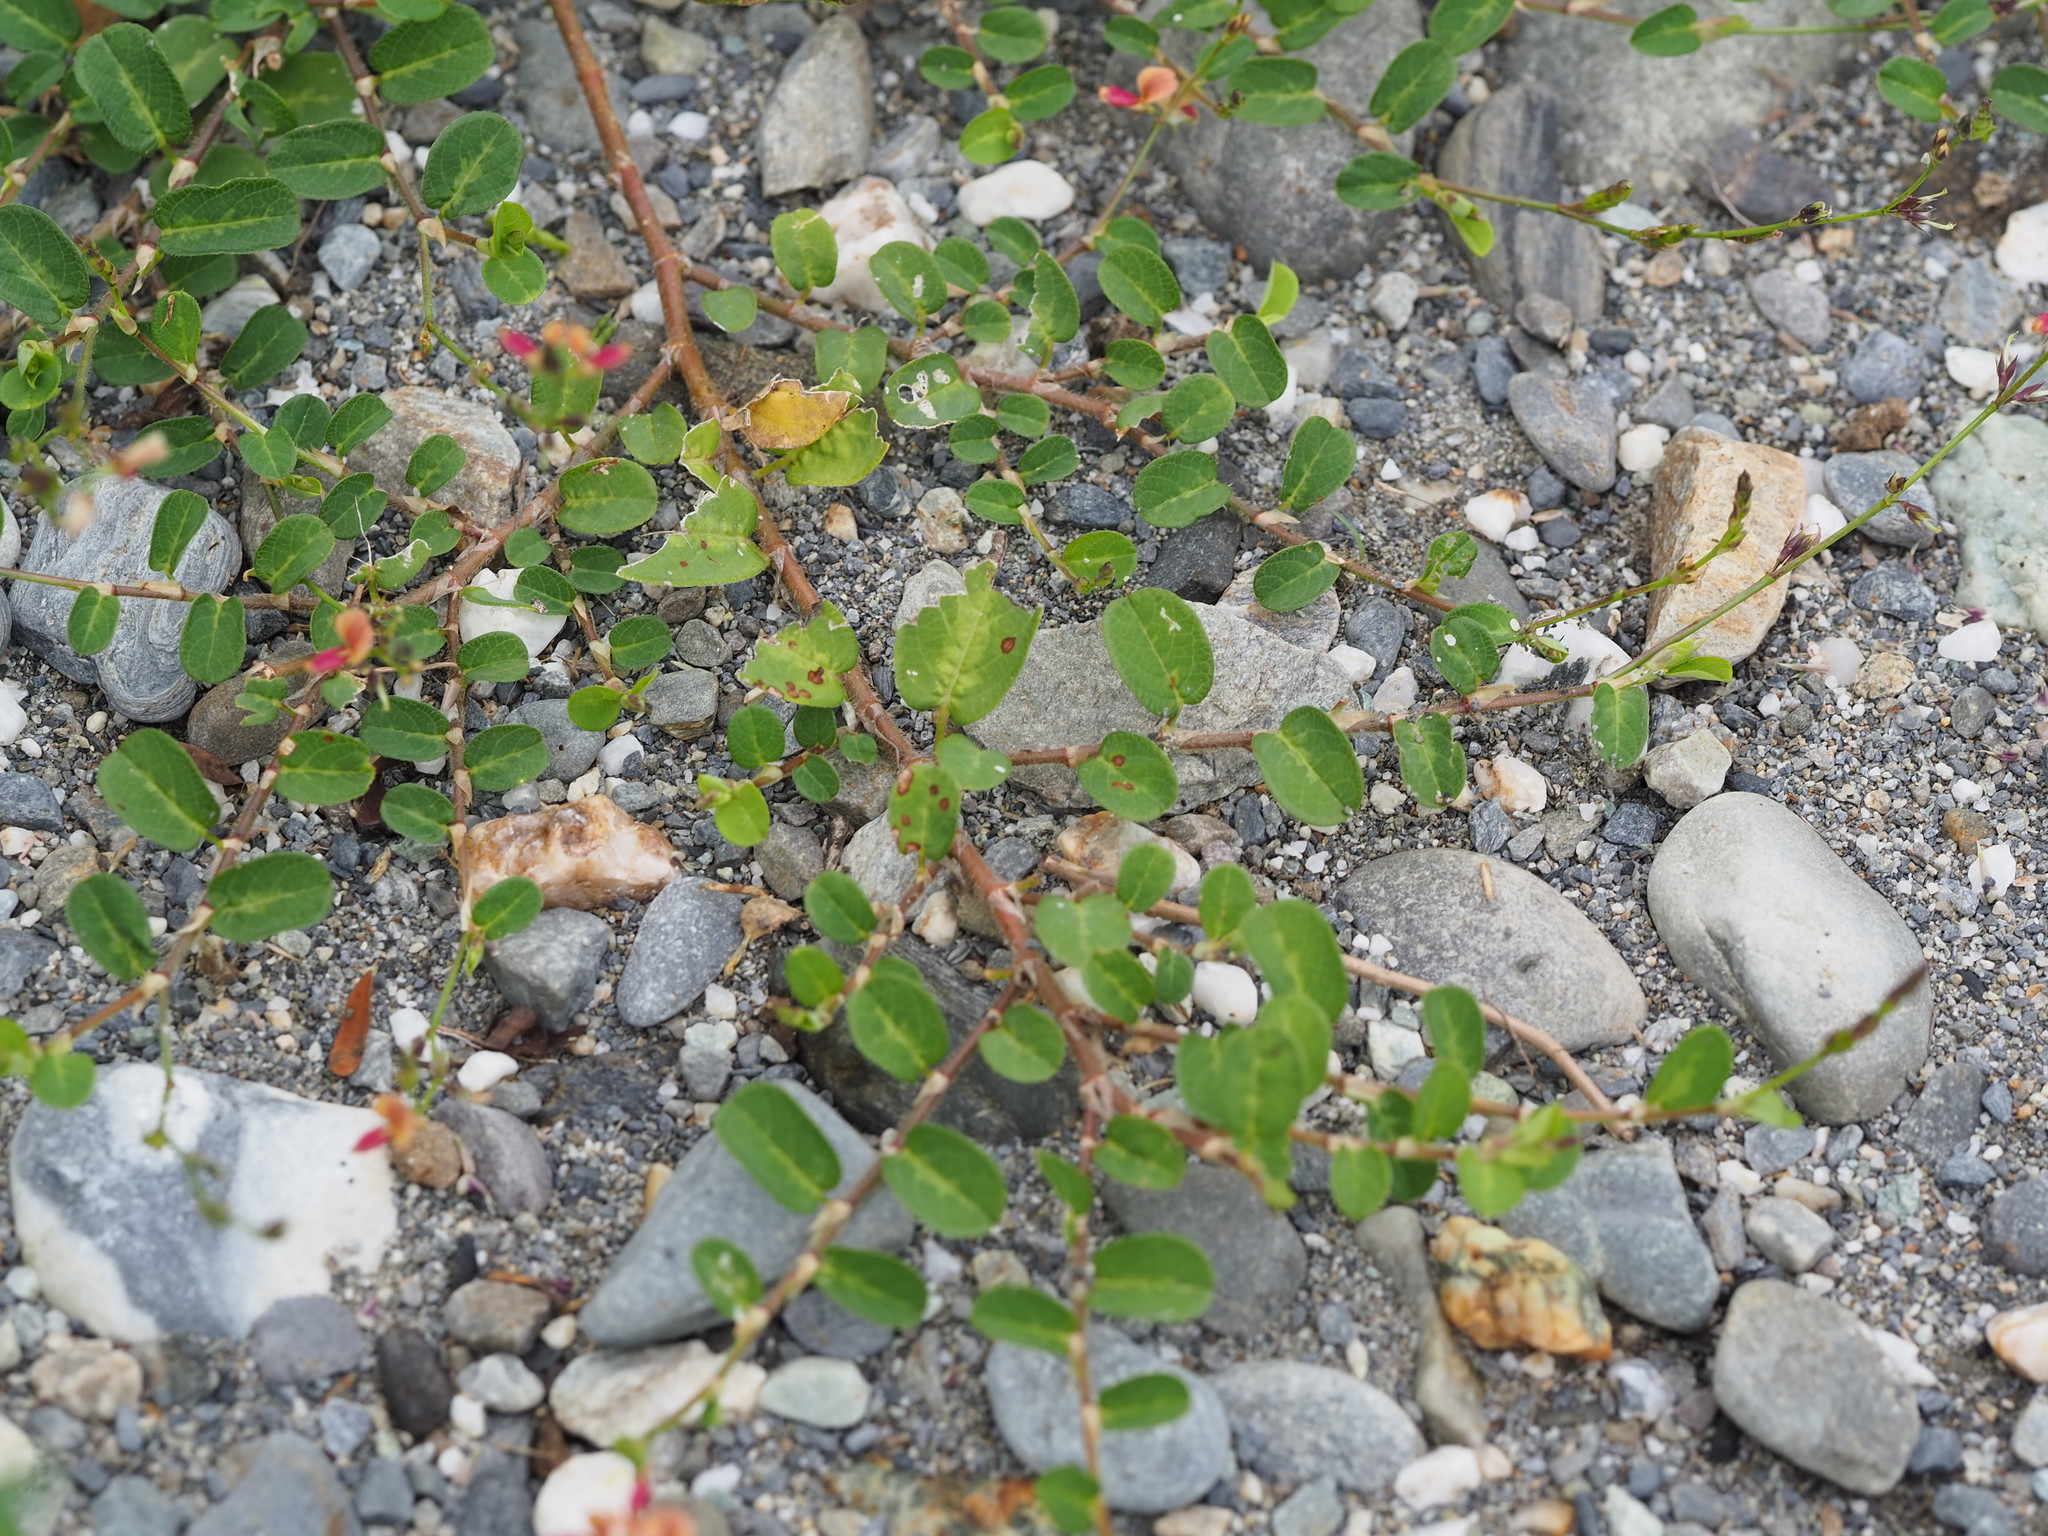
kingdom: Plantae
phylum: Tracheophyta
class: Magnoliopsida
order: Fabales
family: Fabaceae
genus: Alysicarpus
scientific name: Alysicarpus ovalifolius
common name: Alyce clover
